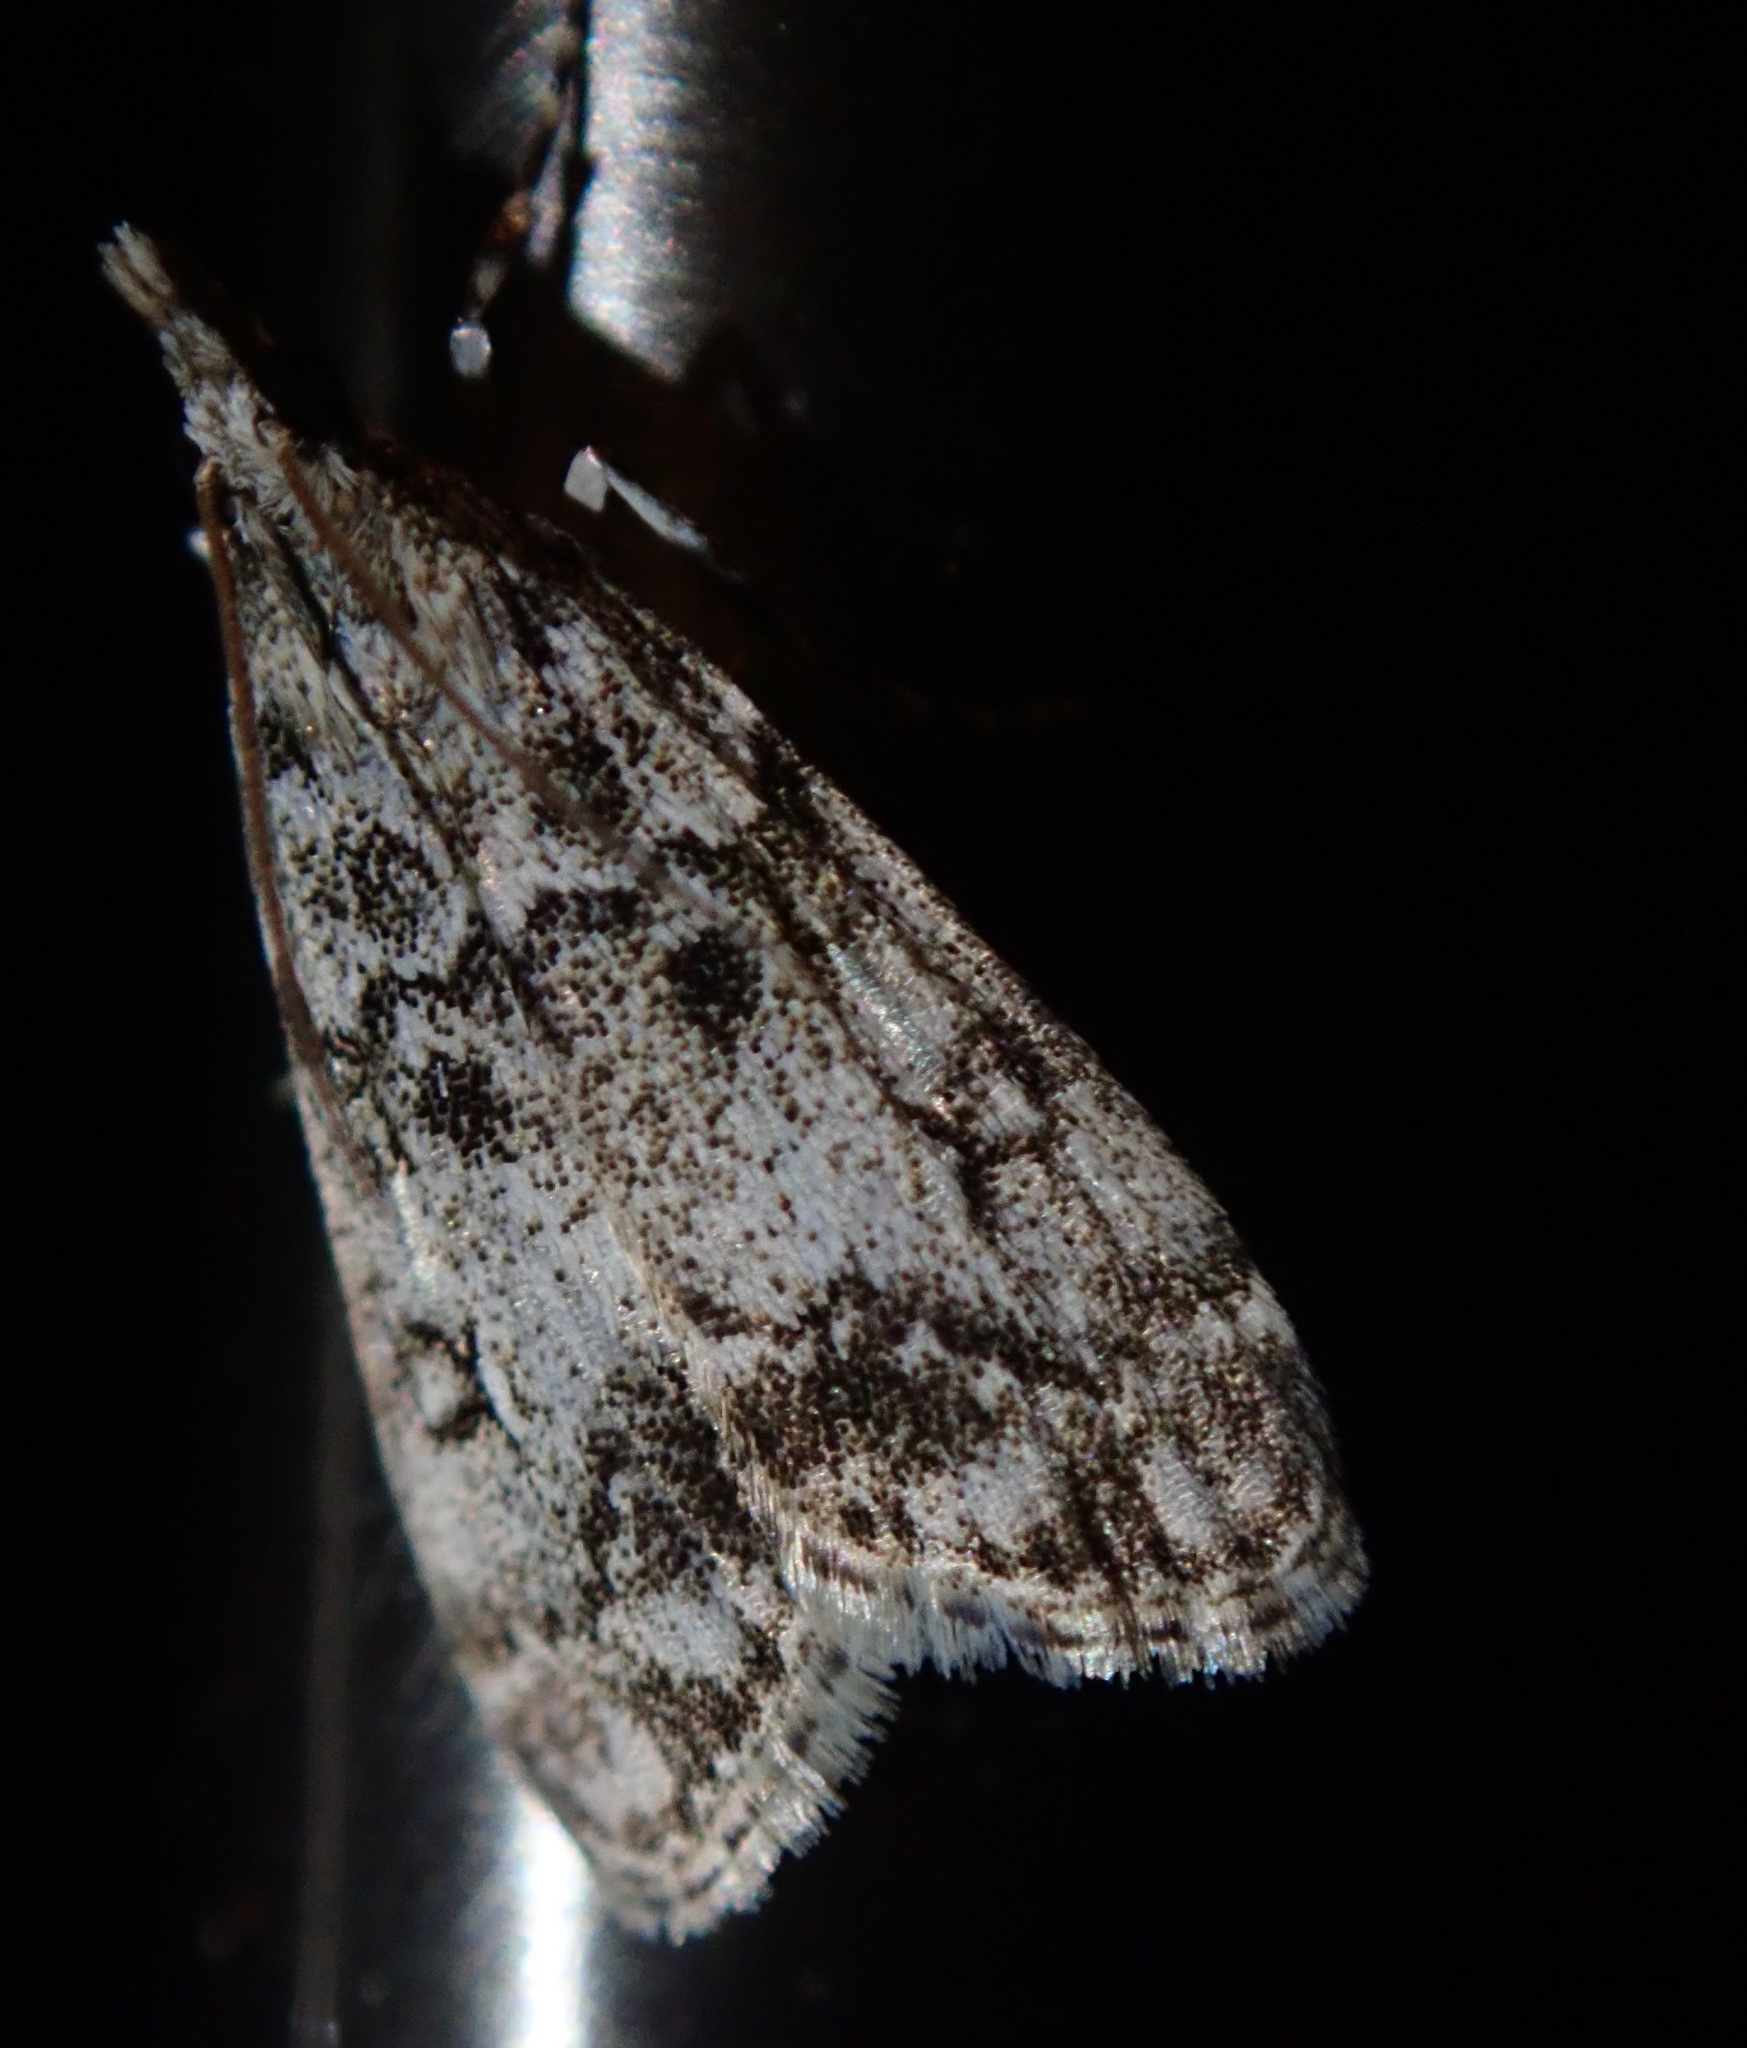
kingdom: Animalia
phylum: Arthropoda
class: Insecta
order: Lepidoptera
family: Crambidae
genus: Eudonia
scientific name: Eudonia lacustrata
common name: Little grey
